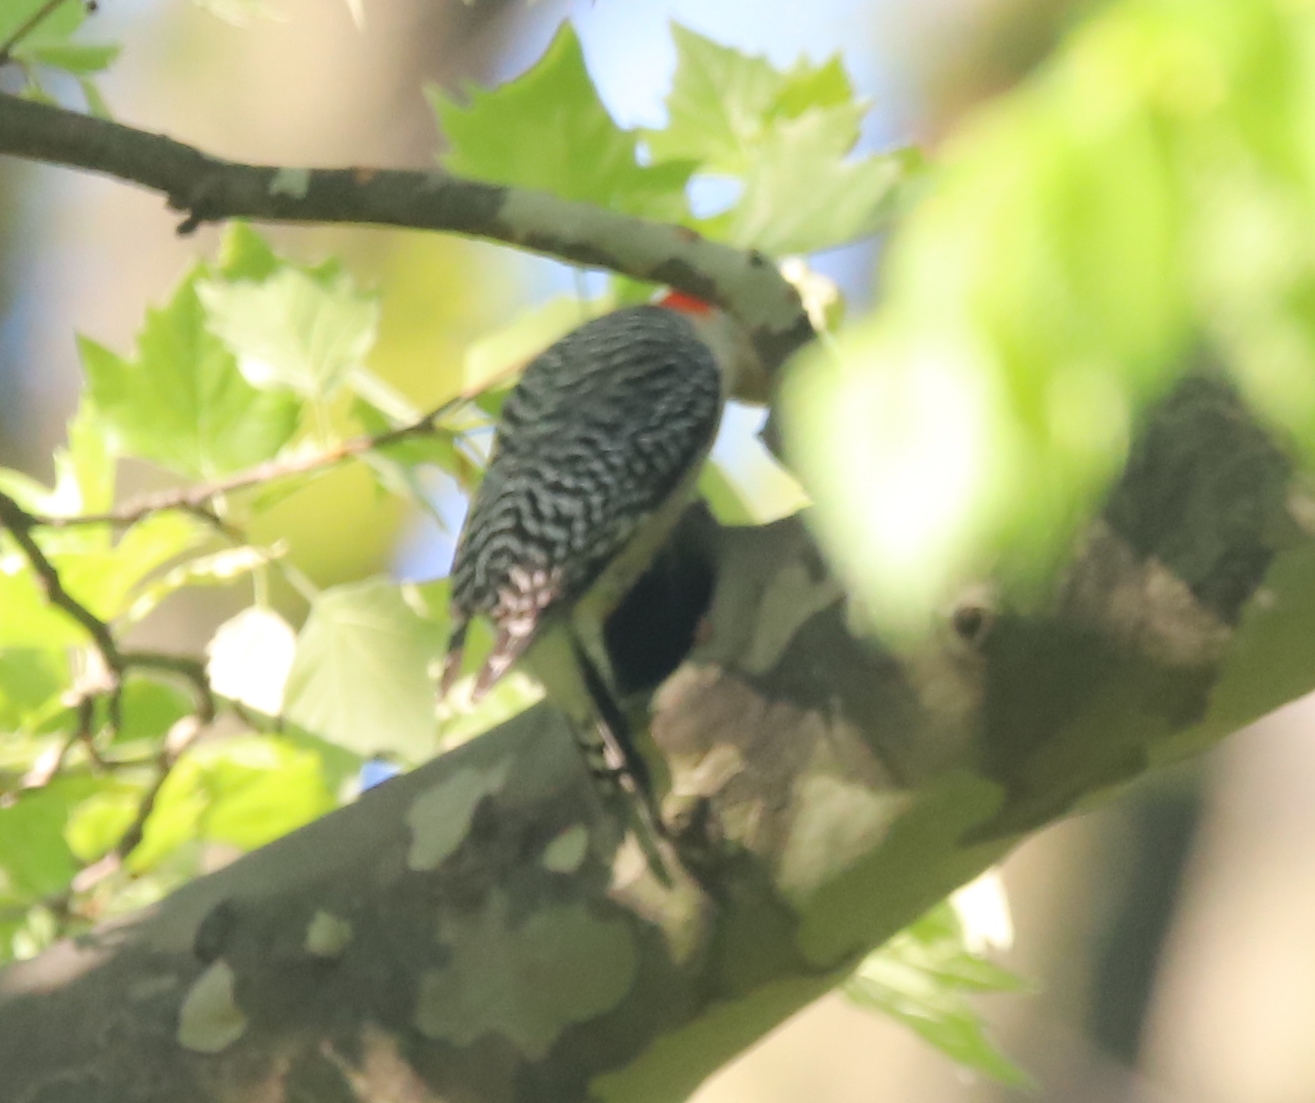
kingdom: Animalia
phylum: Chordata
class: Aves
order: Piciformes
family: Picidae
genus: Melanerpes
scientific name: Melanerpes carolinus
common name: Red-bellied woodpecker
